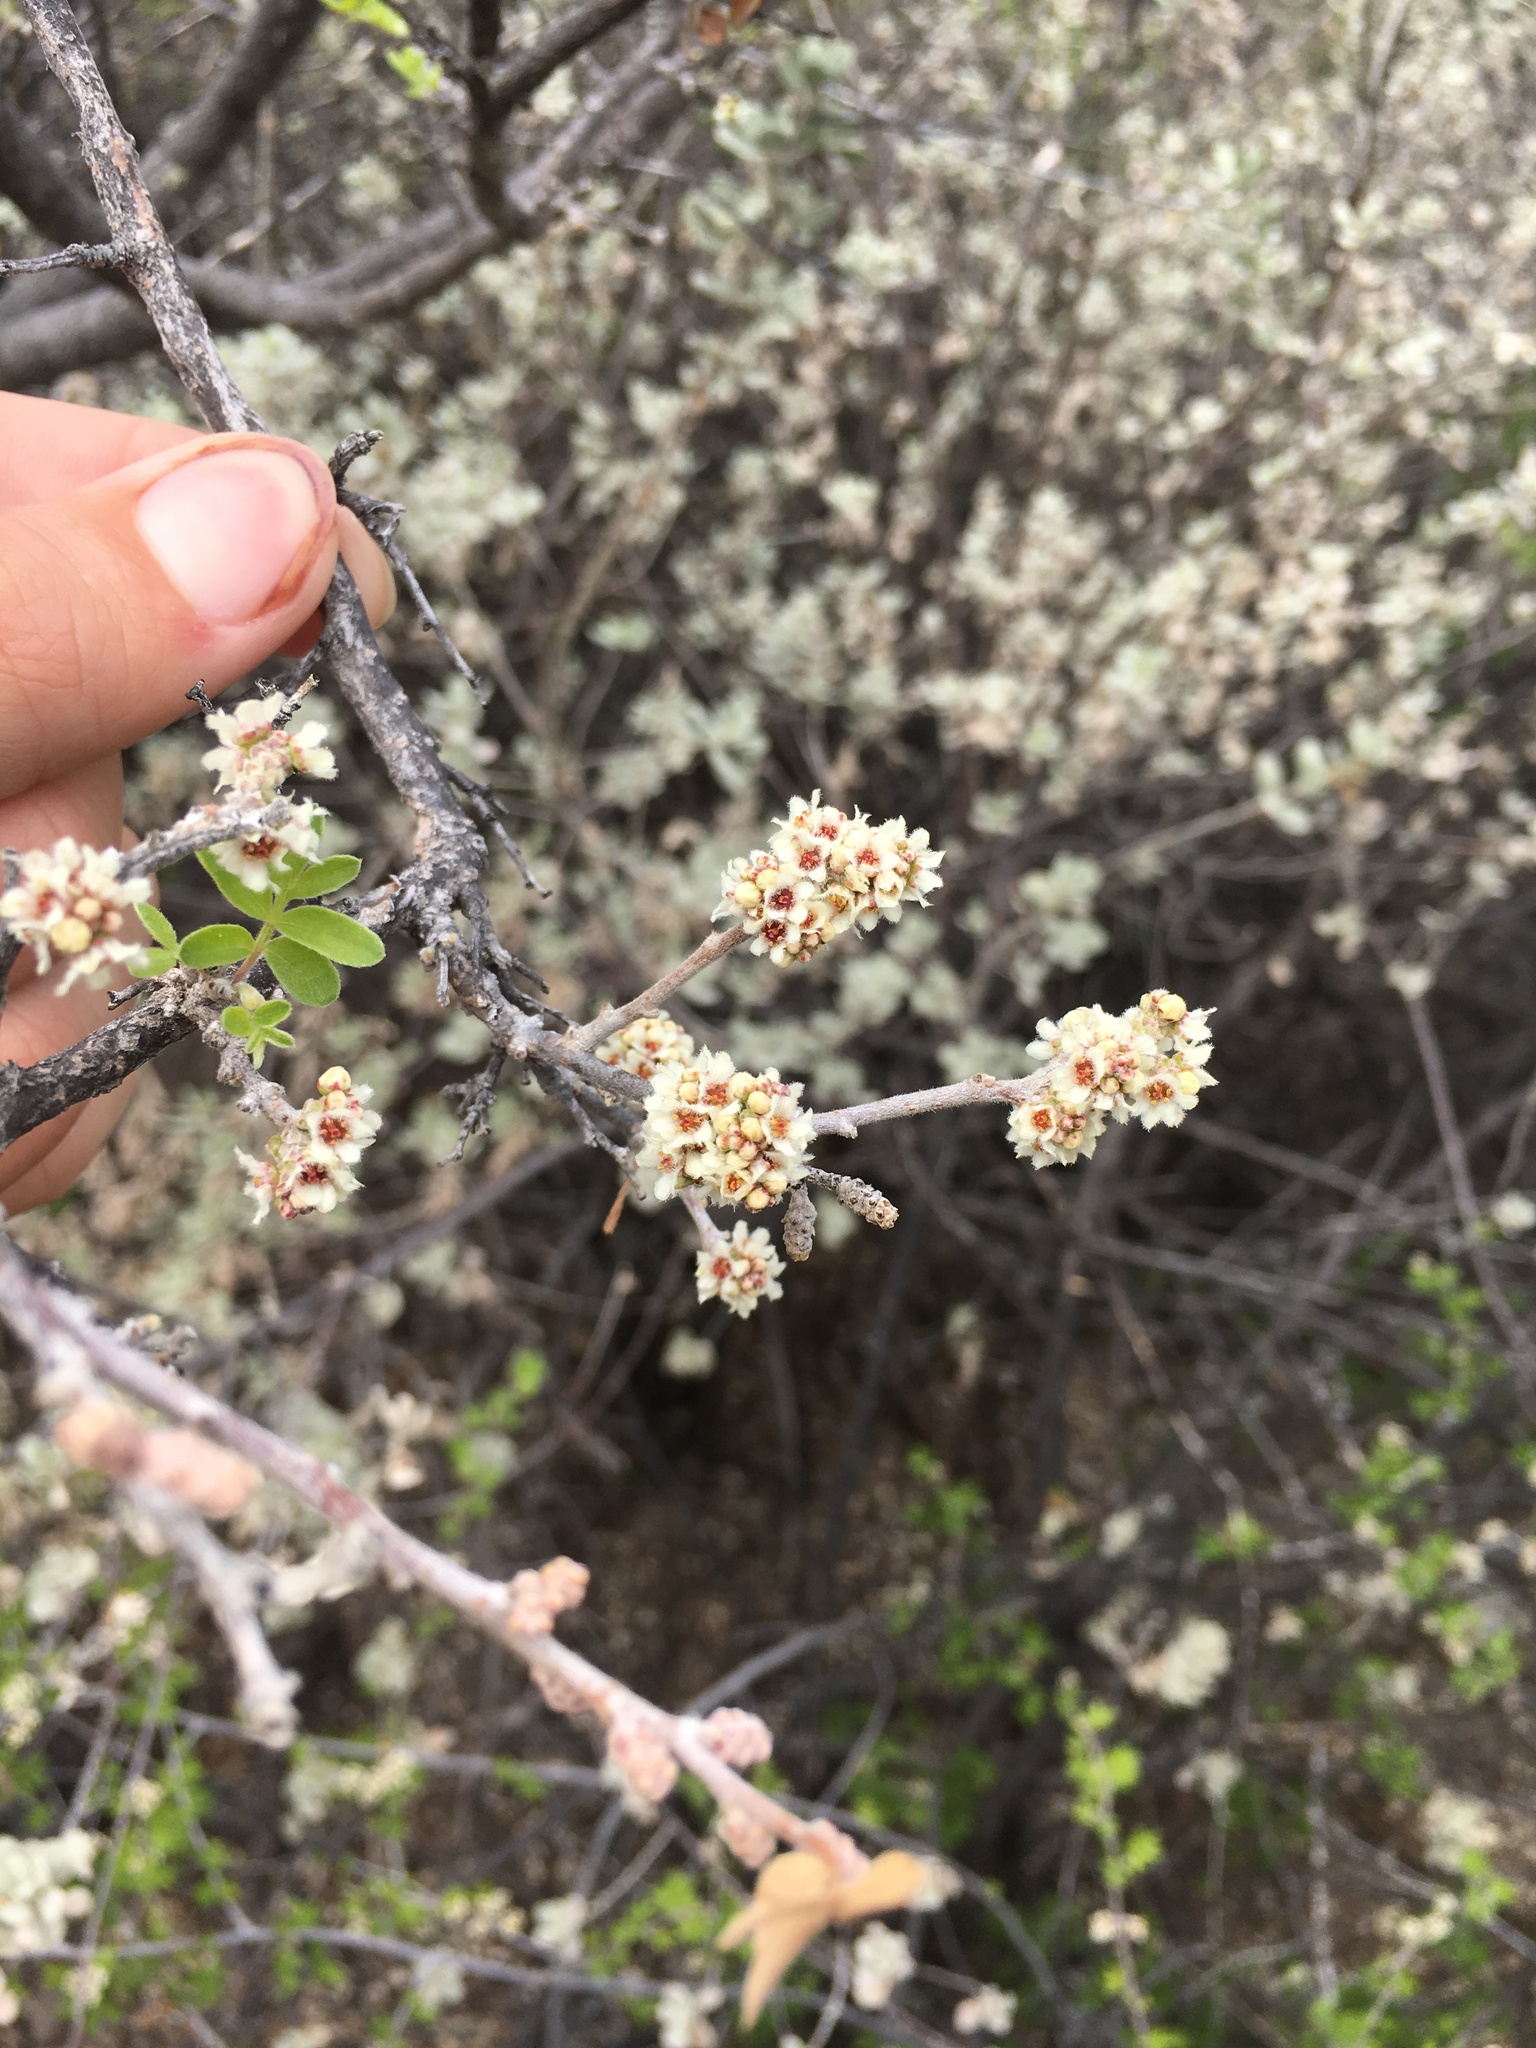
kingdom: Plantae
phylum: Tracheophyta
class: Magnoliopsida
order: Sapindales
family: Anacardiaceae
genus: Rhus
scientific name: Rhus microphylla
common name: Desert sumac
